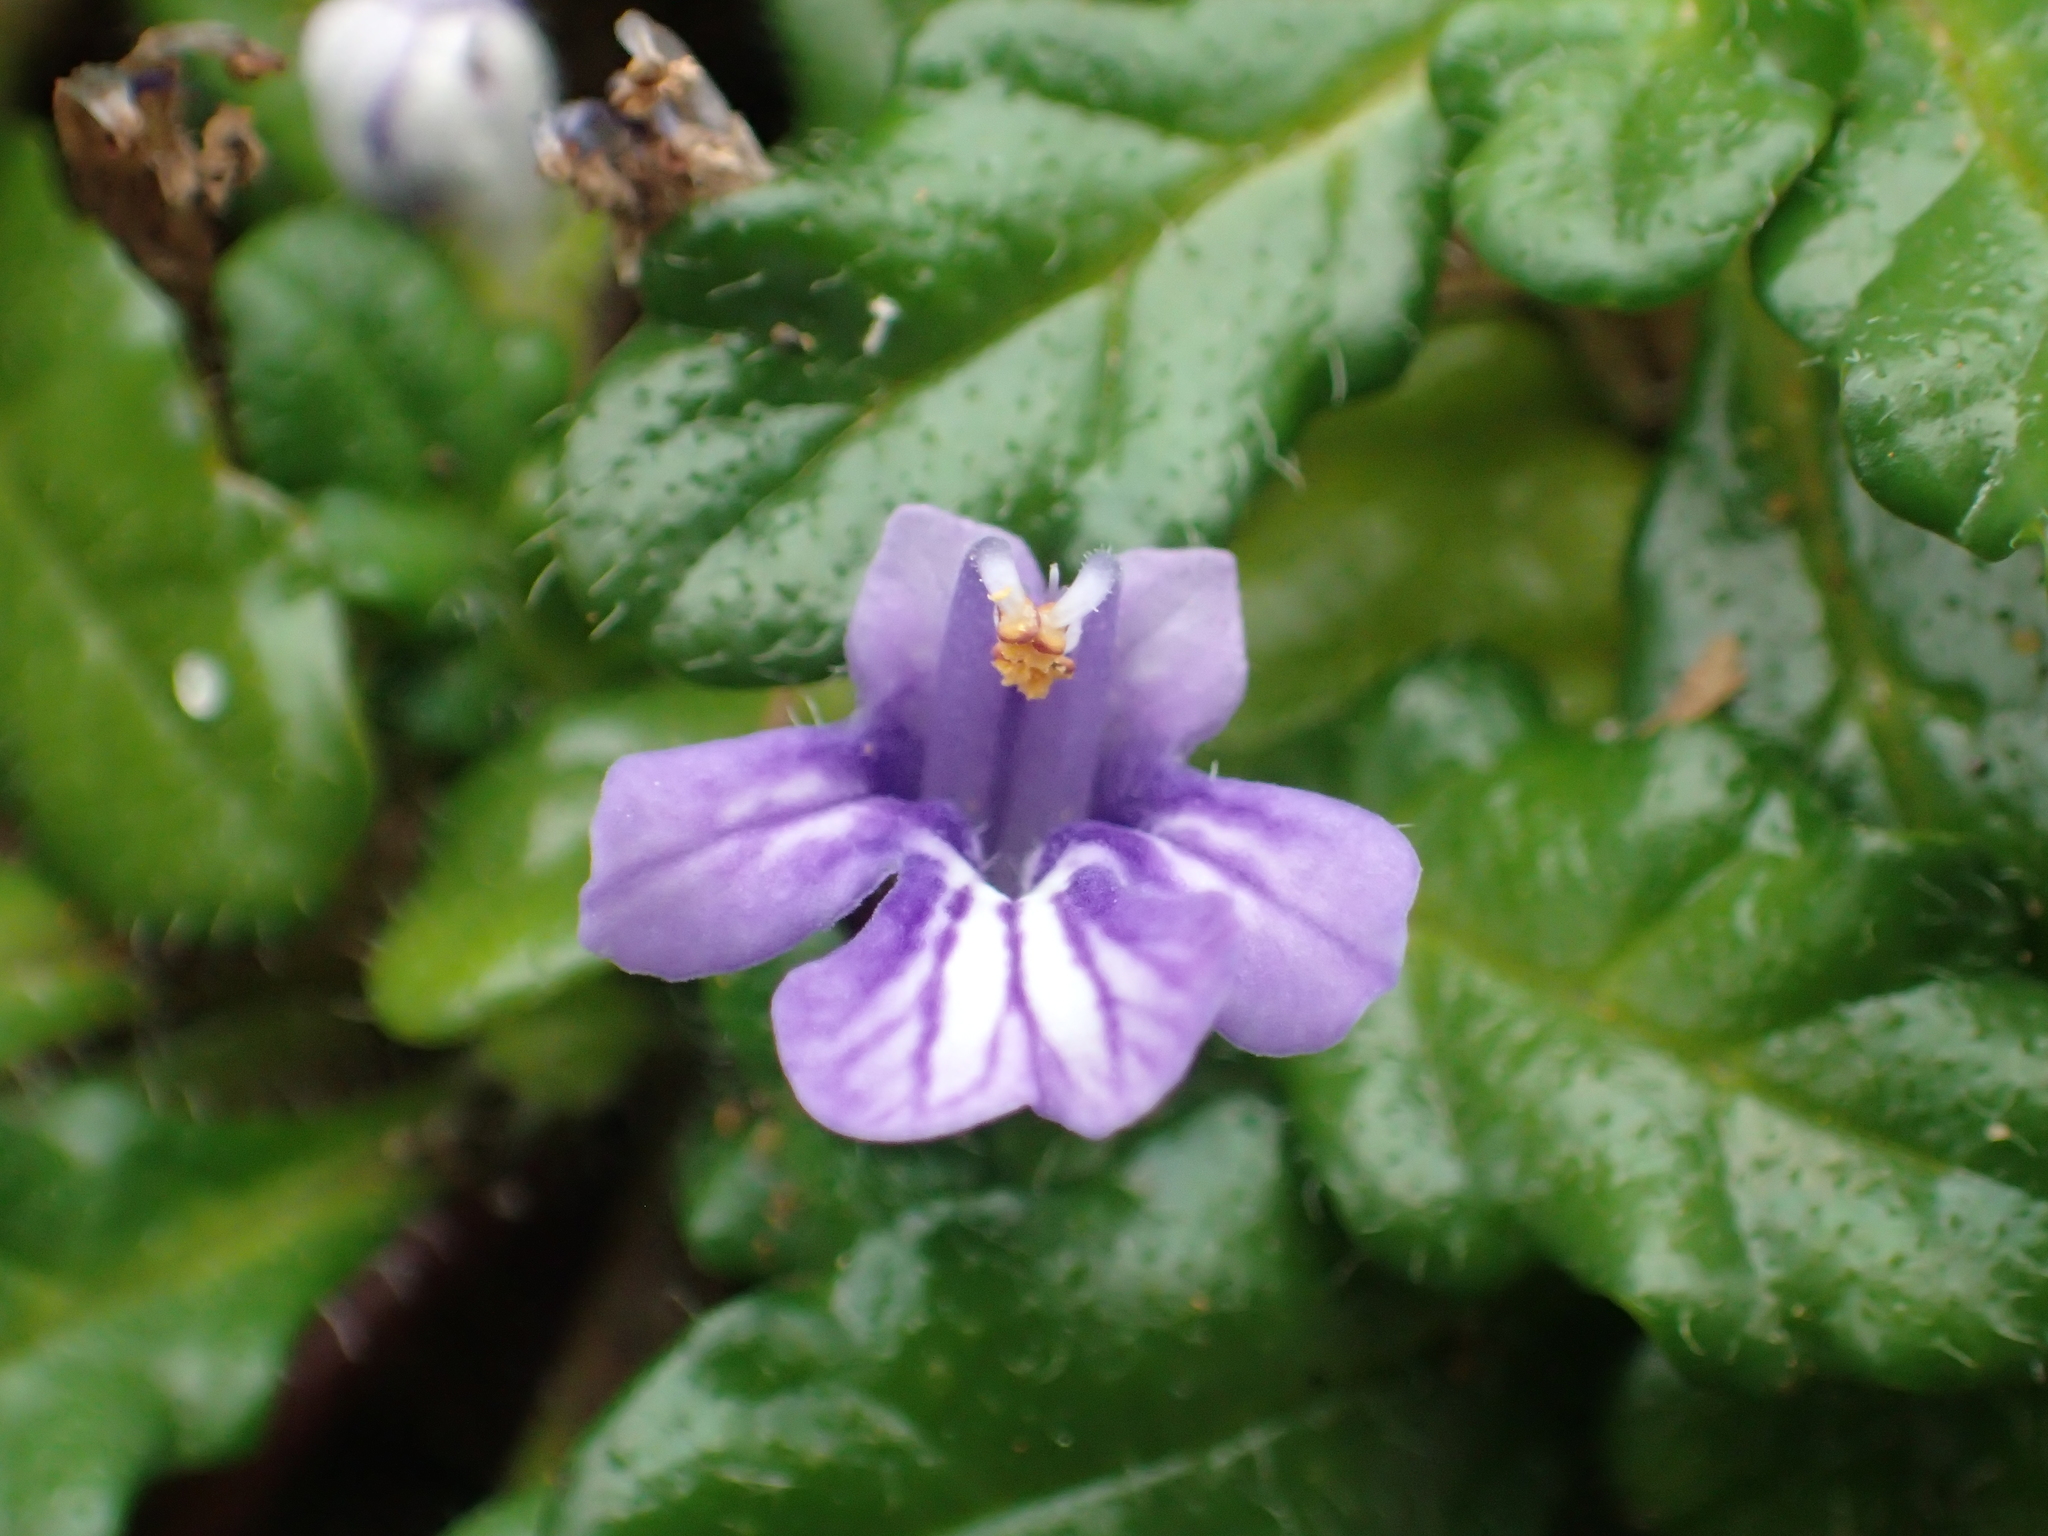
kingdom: Plantae
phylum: Tracheophyta
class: Magnoliopsida
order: Lamiales
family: Lamiaceae
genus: Ajuga
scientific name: Ajuga pygmaea
